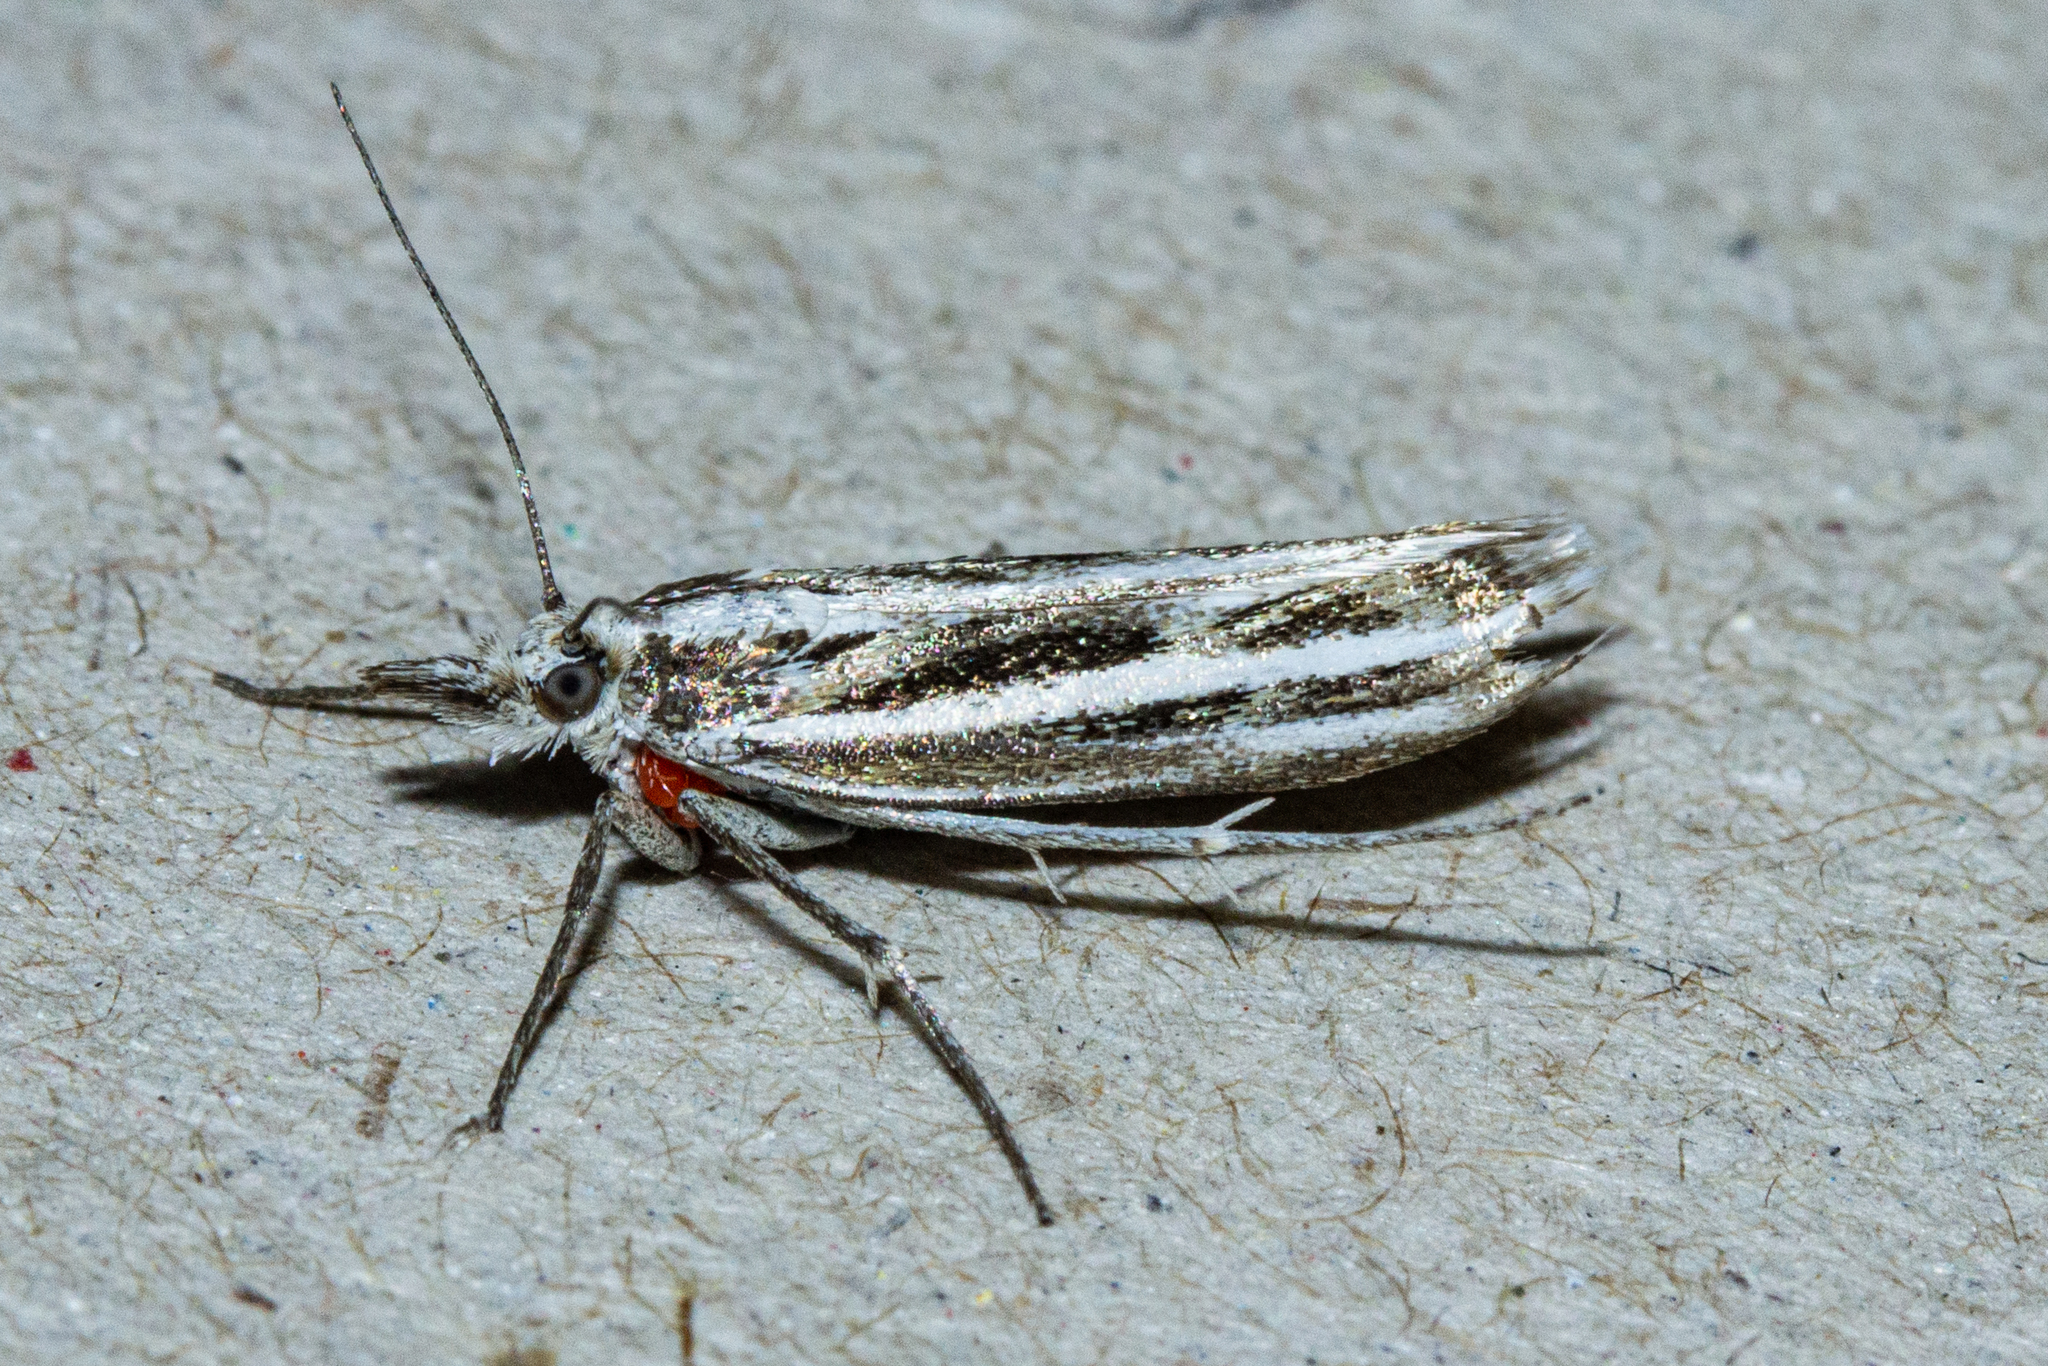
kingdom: Animalia
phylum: Arthropoda
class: Insecta
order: Lepidoptera
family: Crambidae
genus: Orocrambus
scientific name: Orocrambus corruptus
